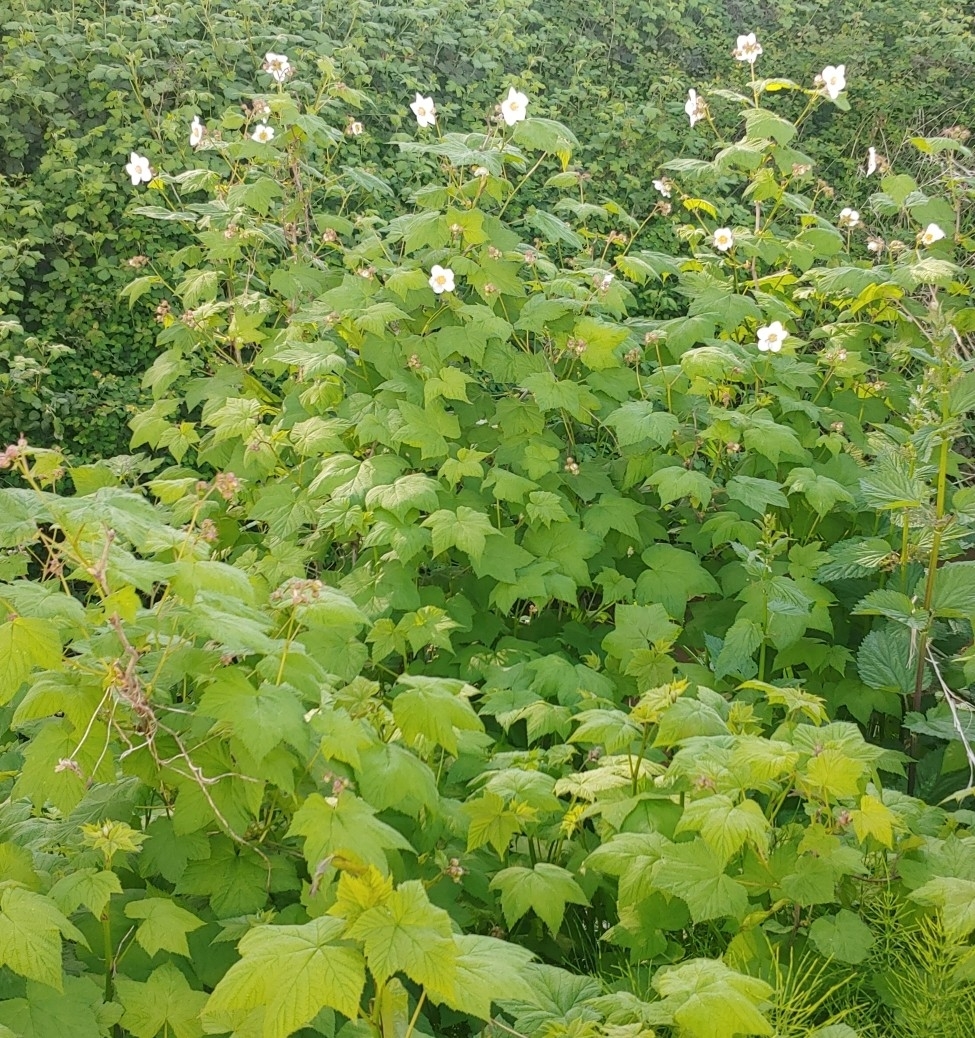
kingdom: Plantae
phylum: Tracheophyta
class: Magnoliopsida
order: Rosales
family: Rosaceae
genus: Rubus
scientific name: Rubus parviflorus
